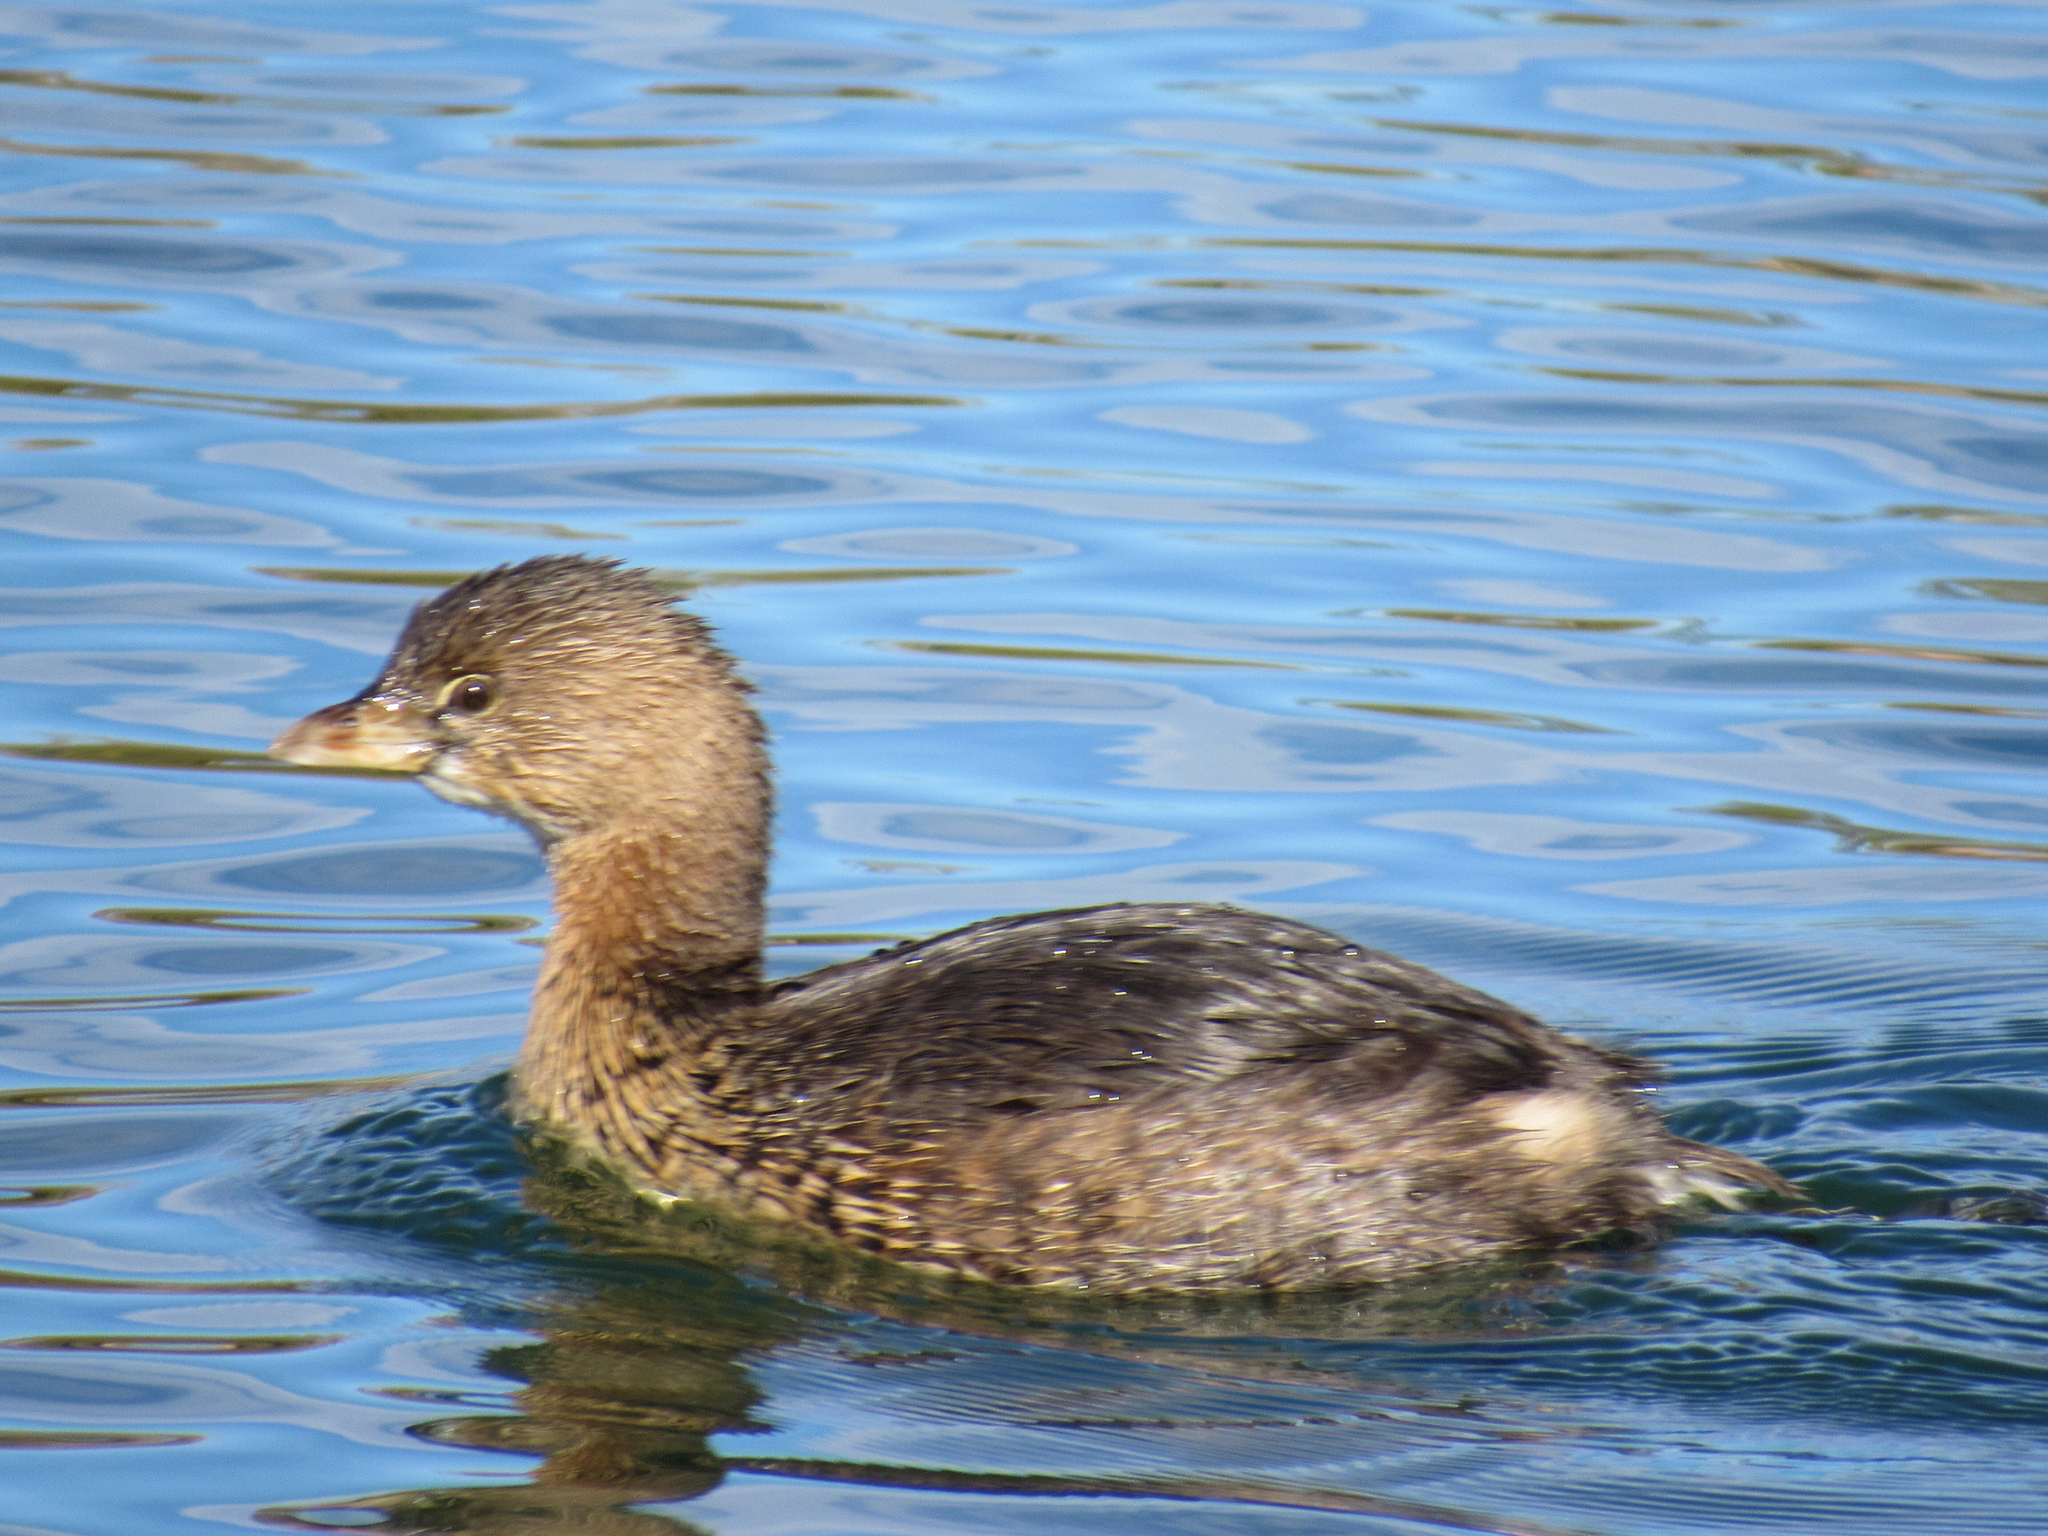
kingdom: Animalia
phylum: Chordata
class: Aves
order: Podicipediformes
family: Podicipedidae
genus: Podilymbus
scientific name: Podilymbus podiceps
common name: Pied-billed grebe
